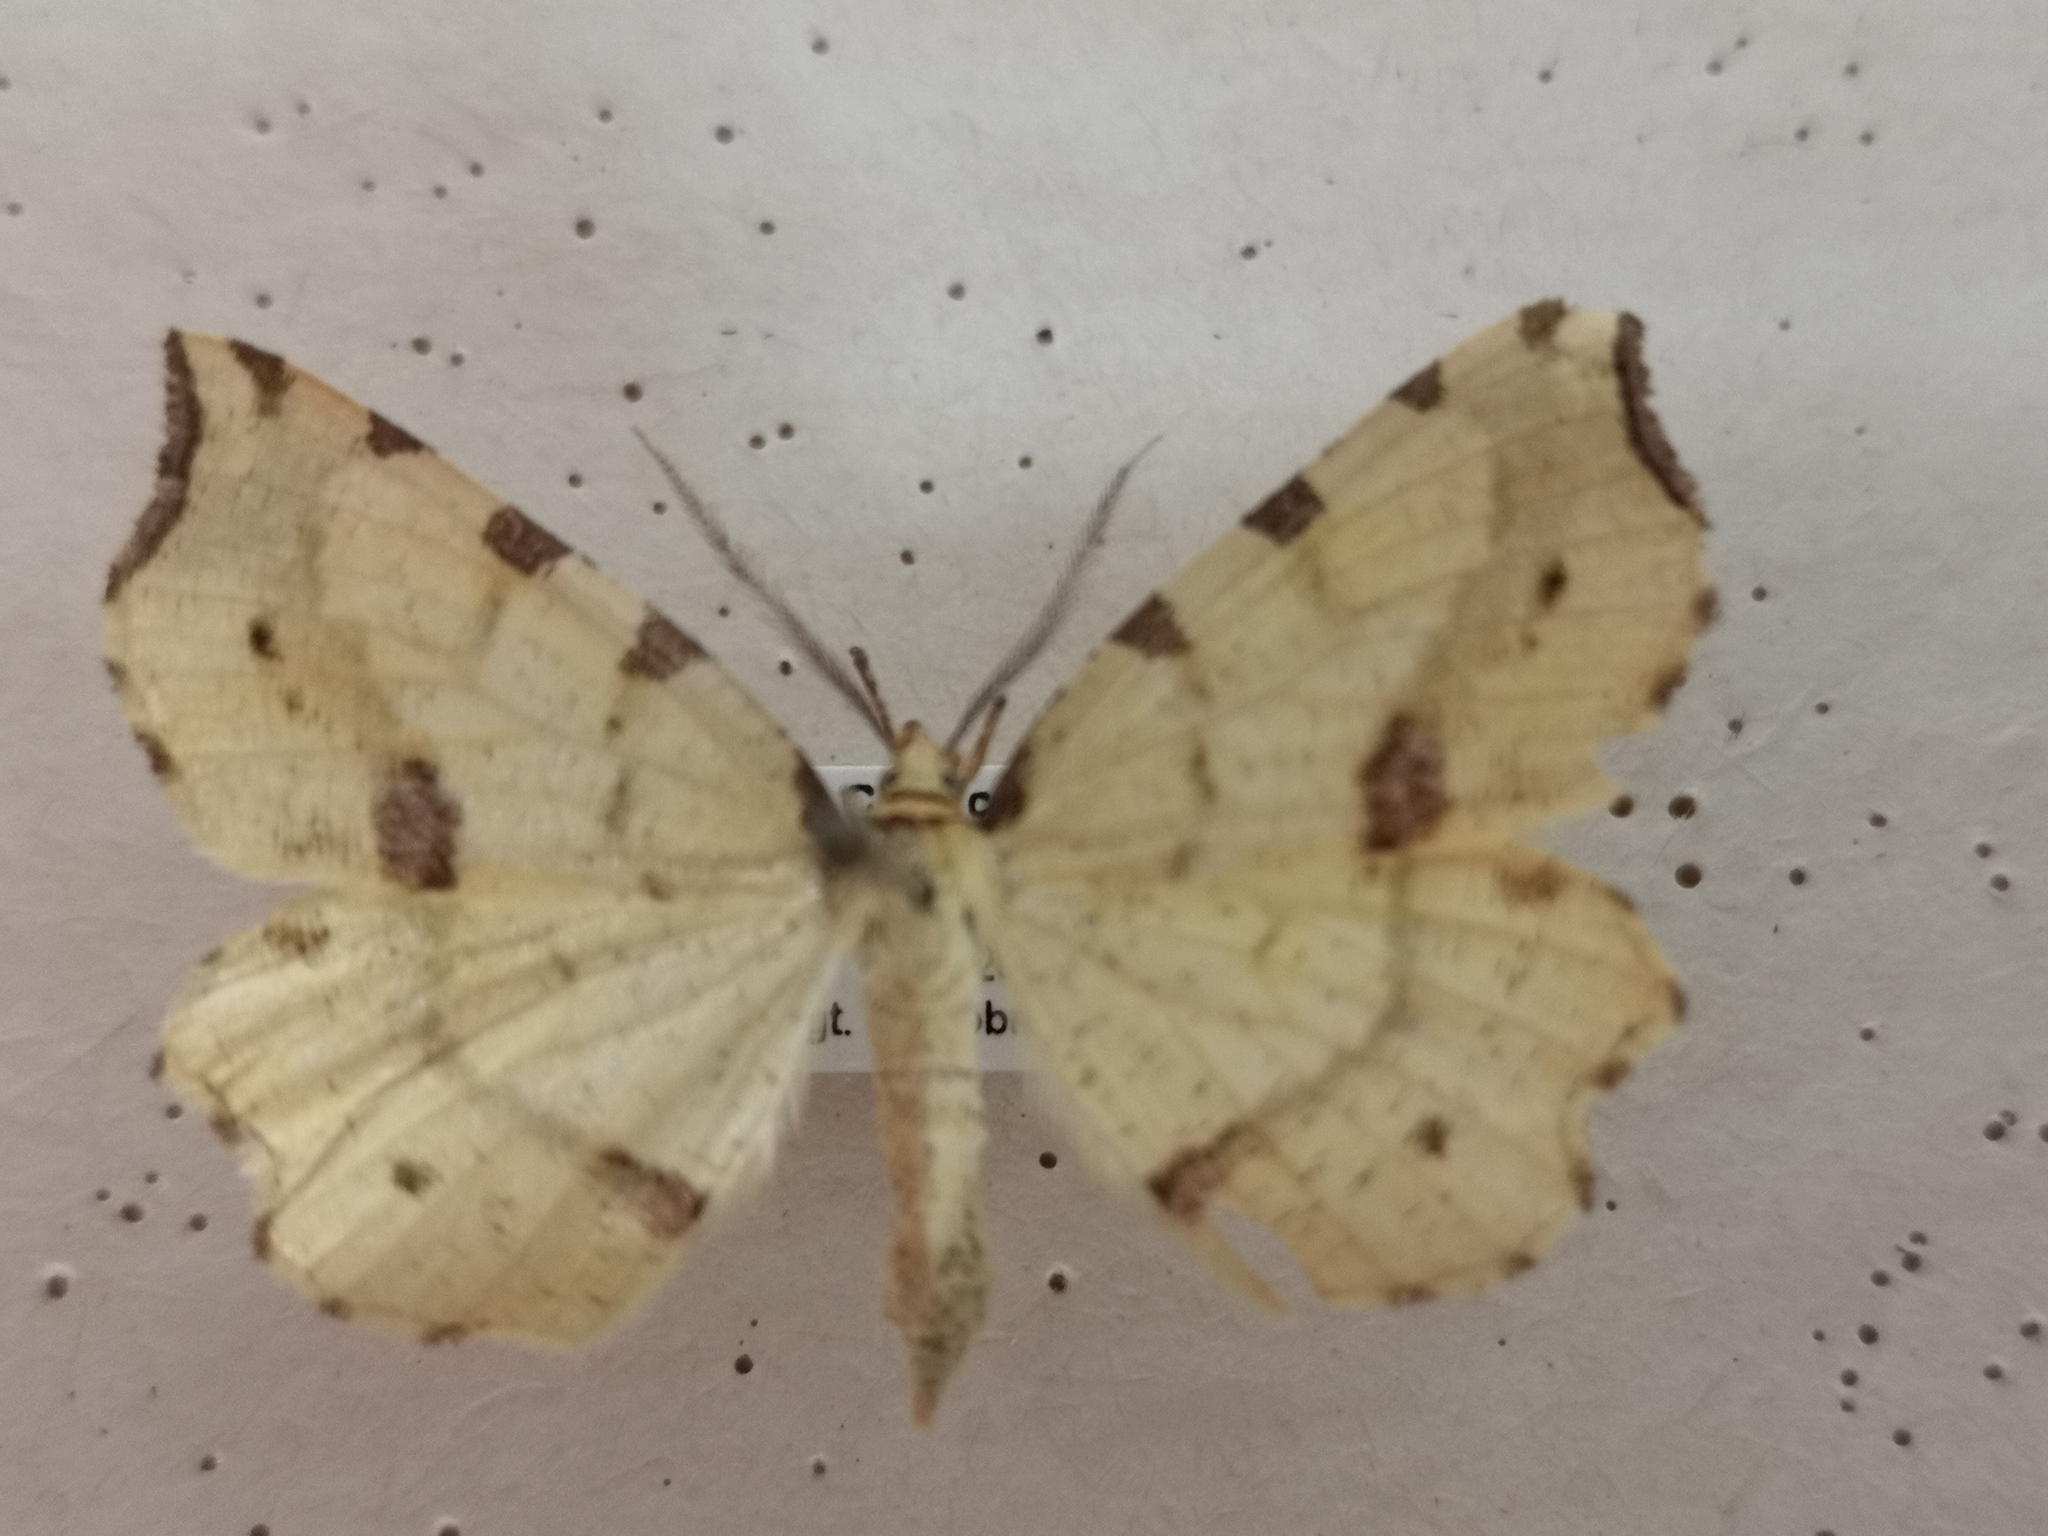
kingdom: Animalia
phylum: Arthropoda
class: Insecta
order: Lepidoptera
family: Geometridae
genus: Therapis
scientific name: Therapis flavicaria
